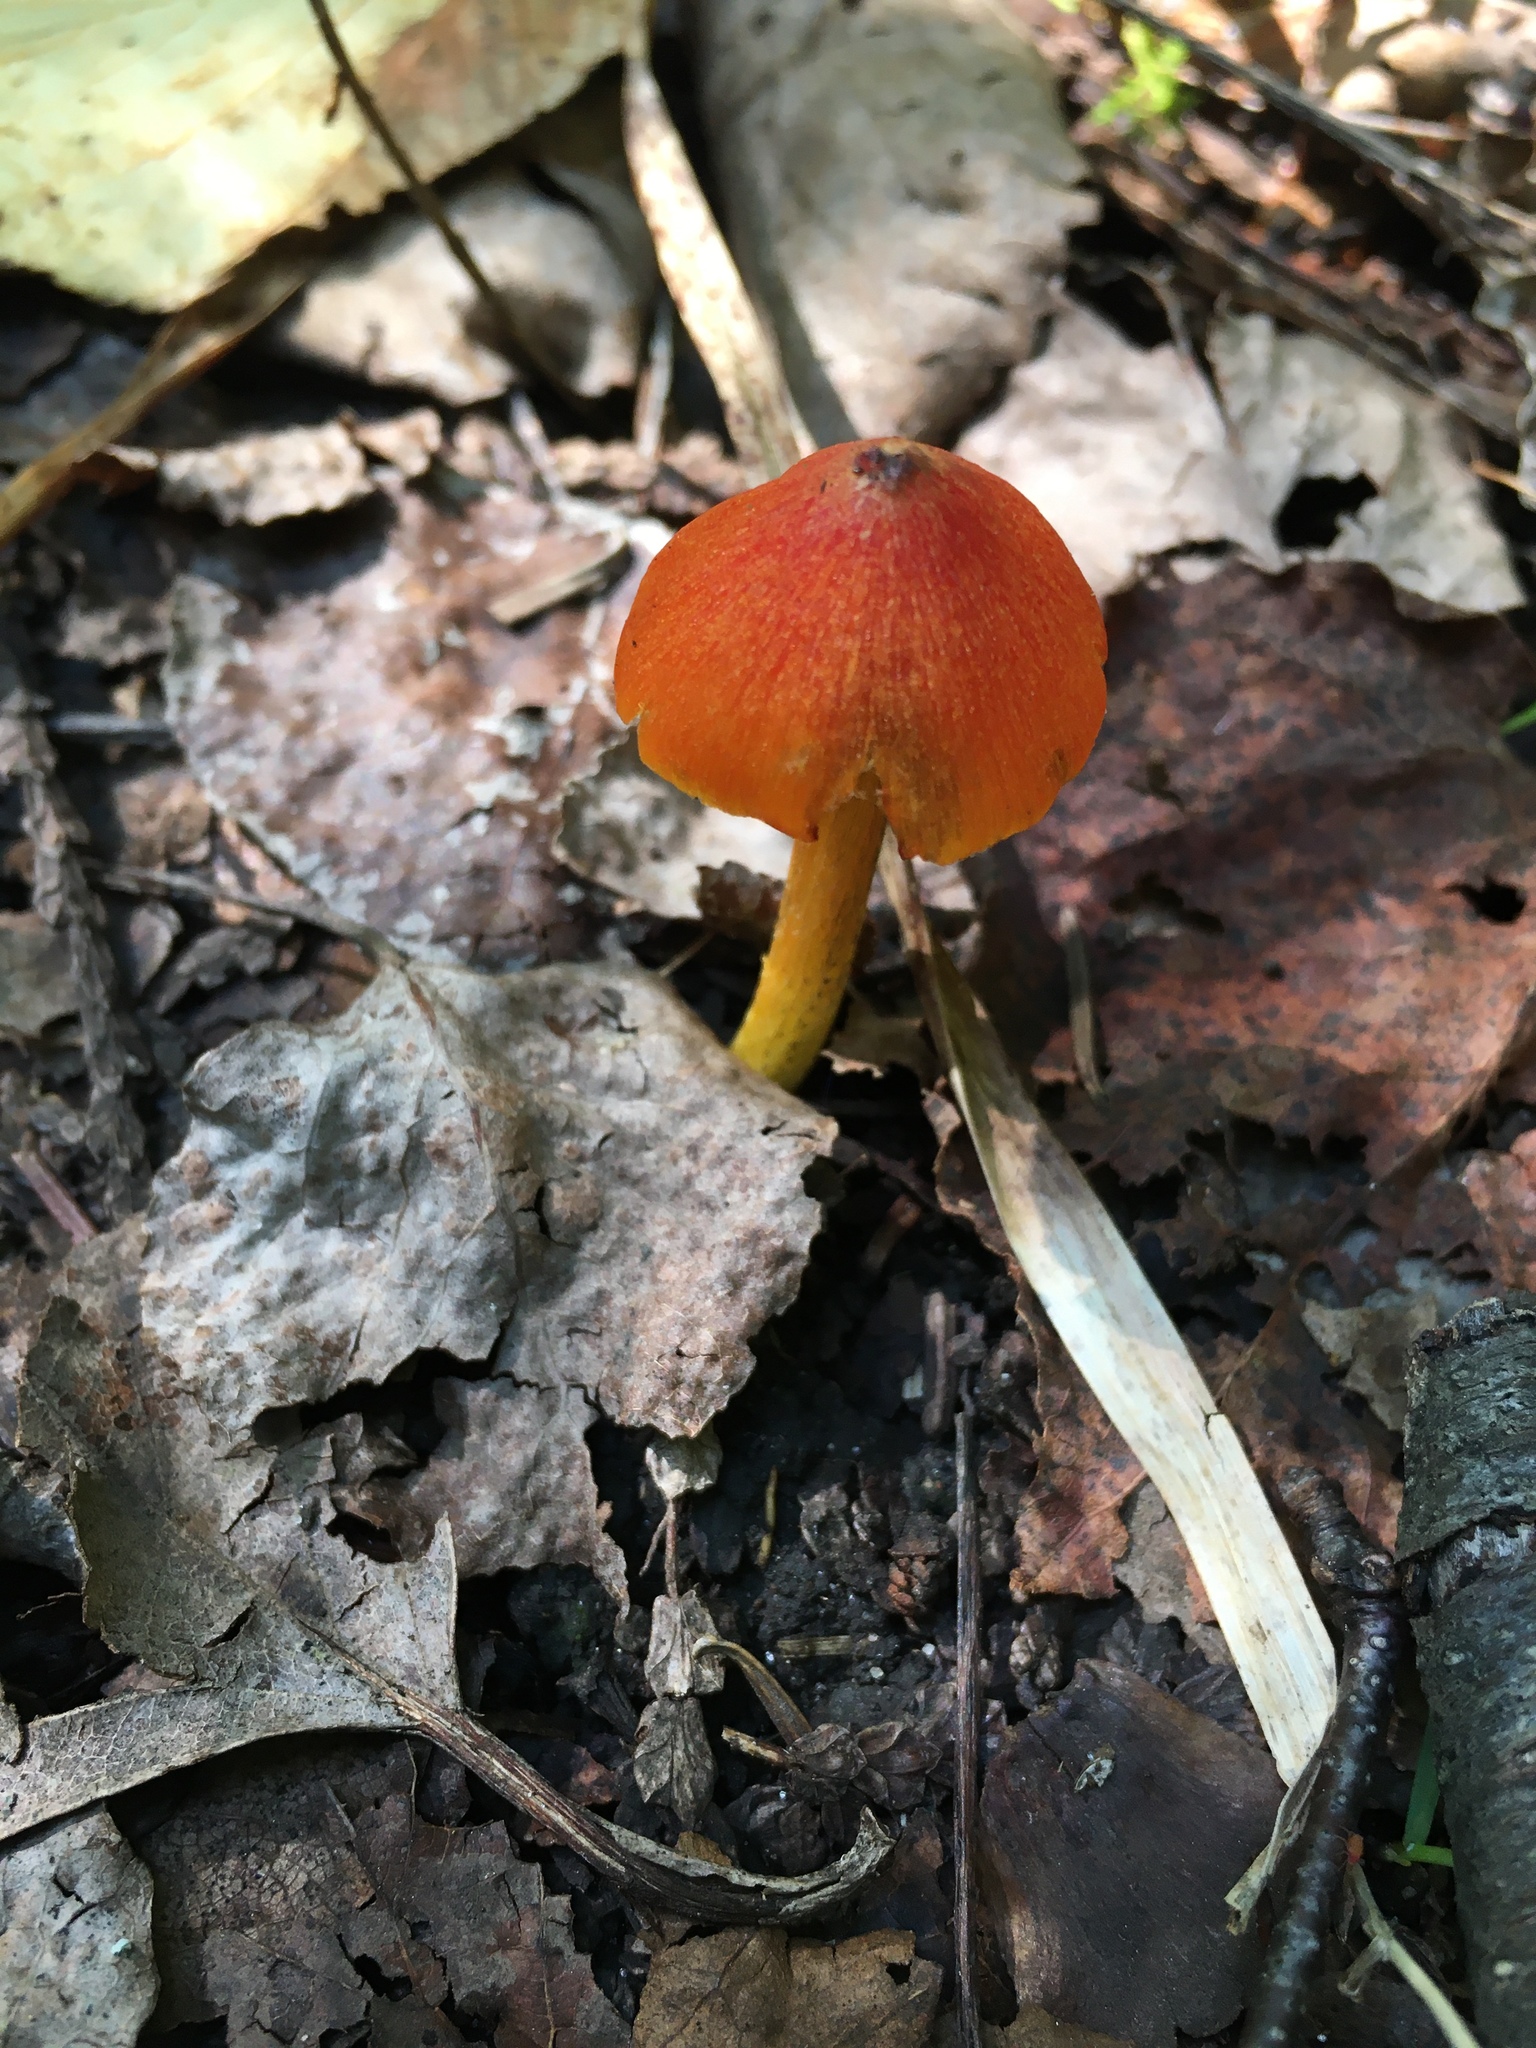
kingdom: Fungi
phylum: Basidiomycota
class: Agaricomycetes
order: Agaricales
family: Hygrophoraceae
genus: Hygrocybe
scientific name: Hygrocybe conica
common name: Blackening wax-cap
